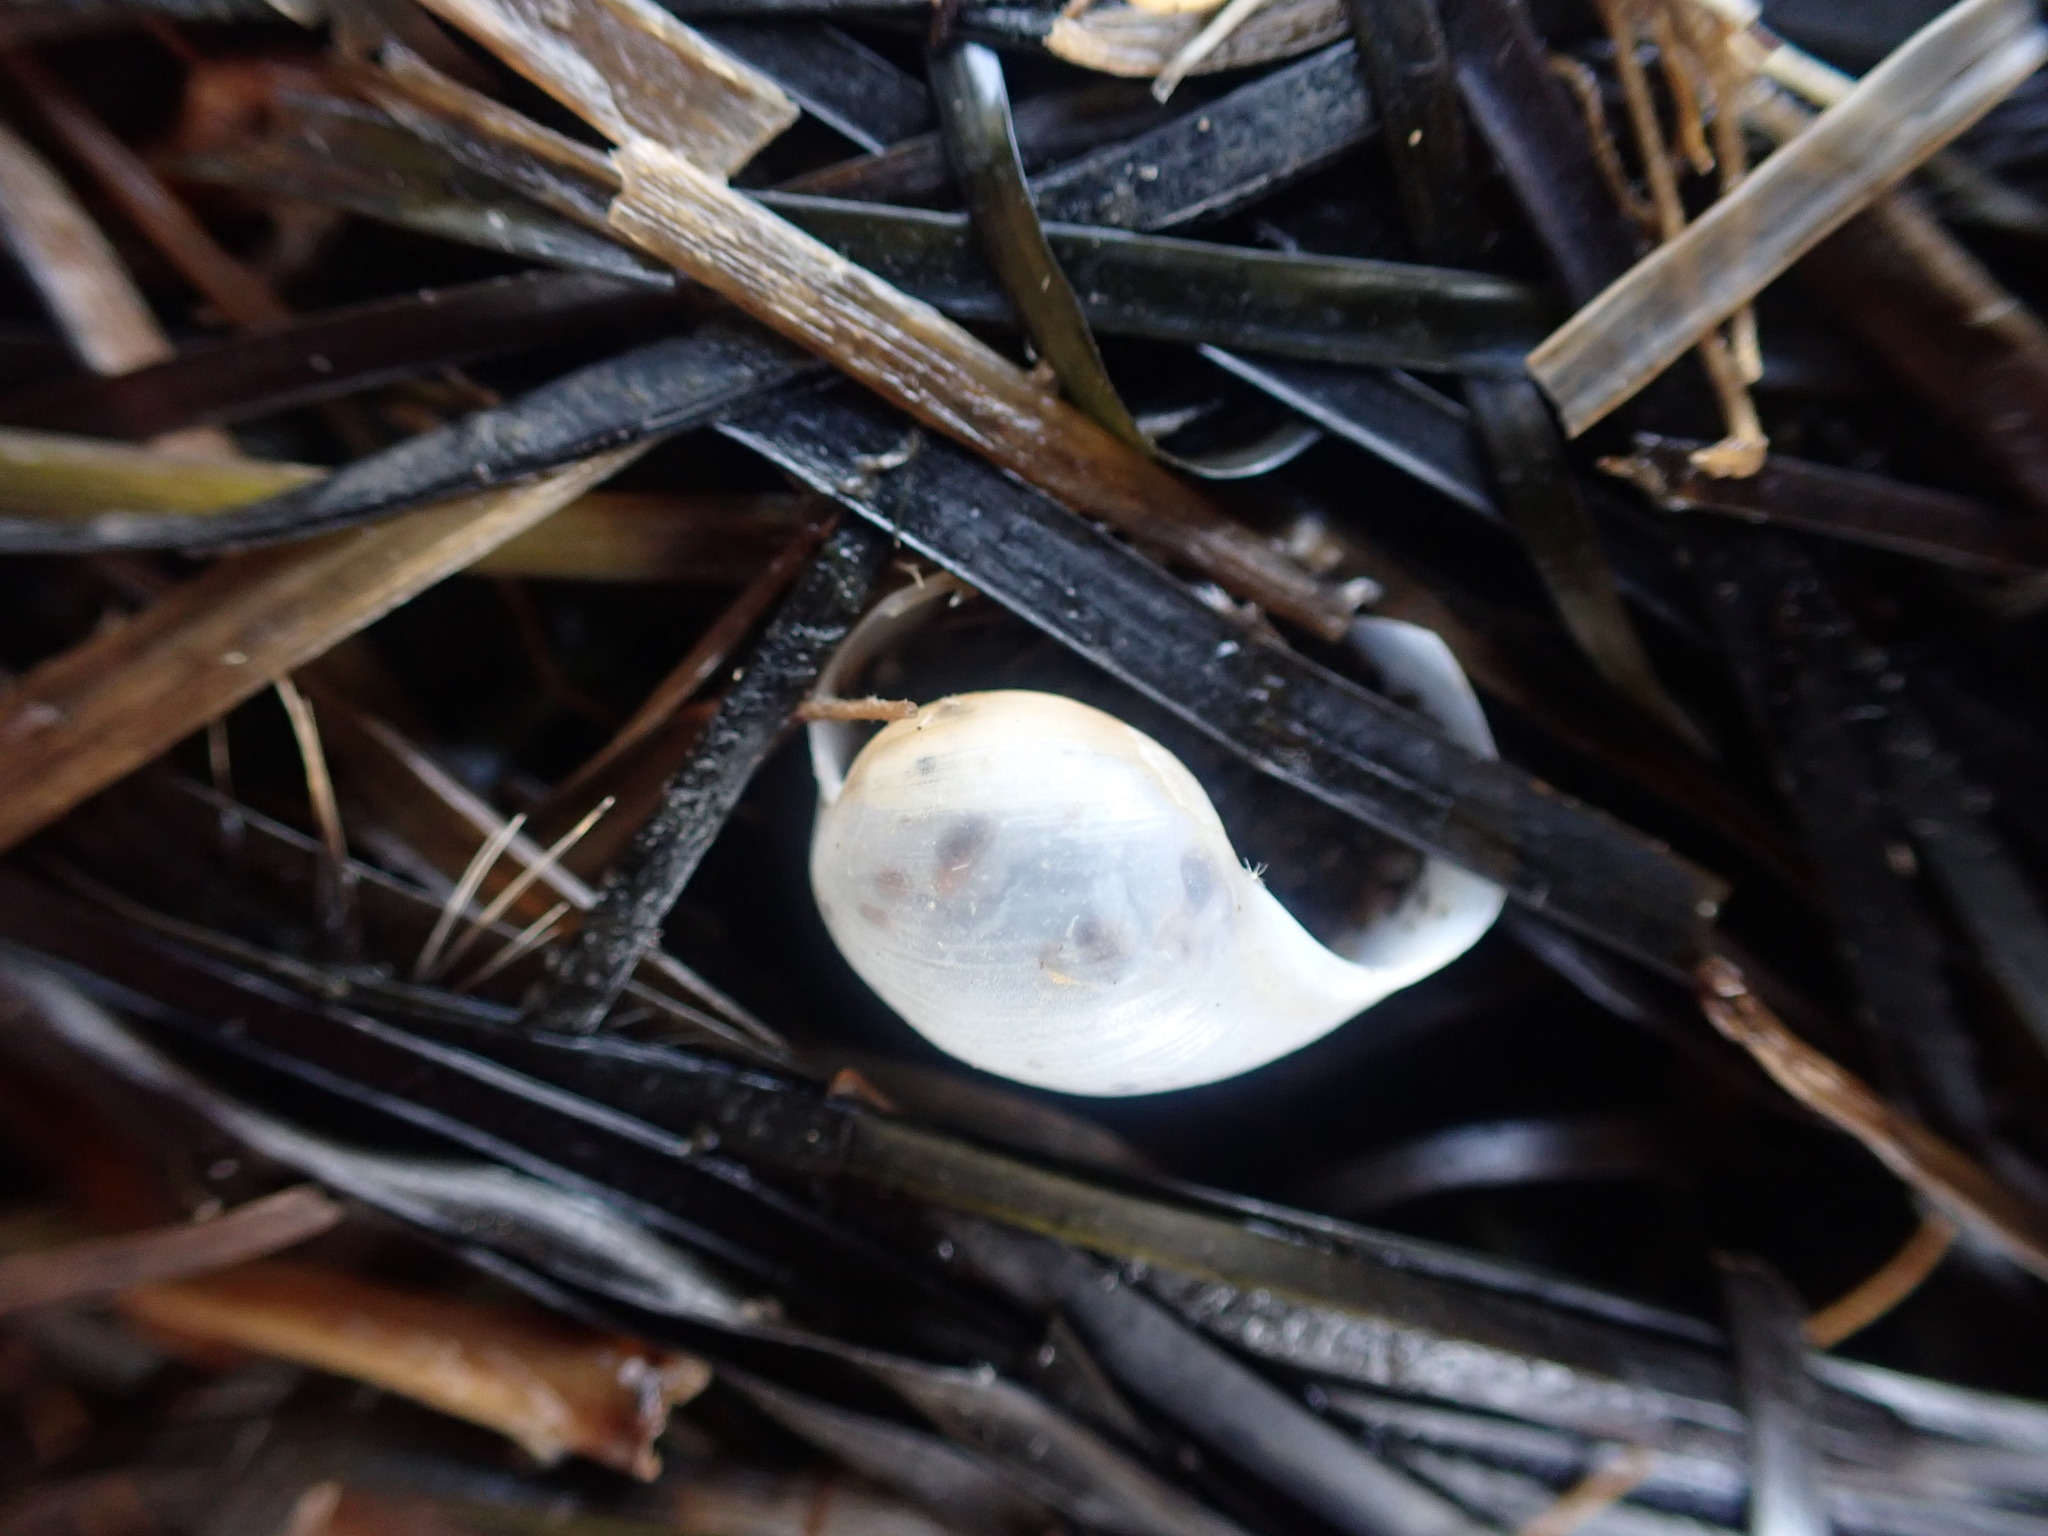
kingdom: Animalia
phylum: Mollusca
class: Gastropoda
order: Cephalaspidea
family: Haminoeidae
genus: Papawera
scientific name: Papawera zelandiae
